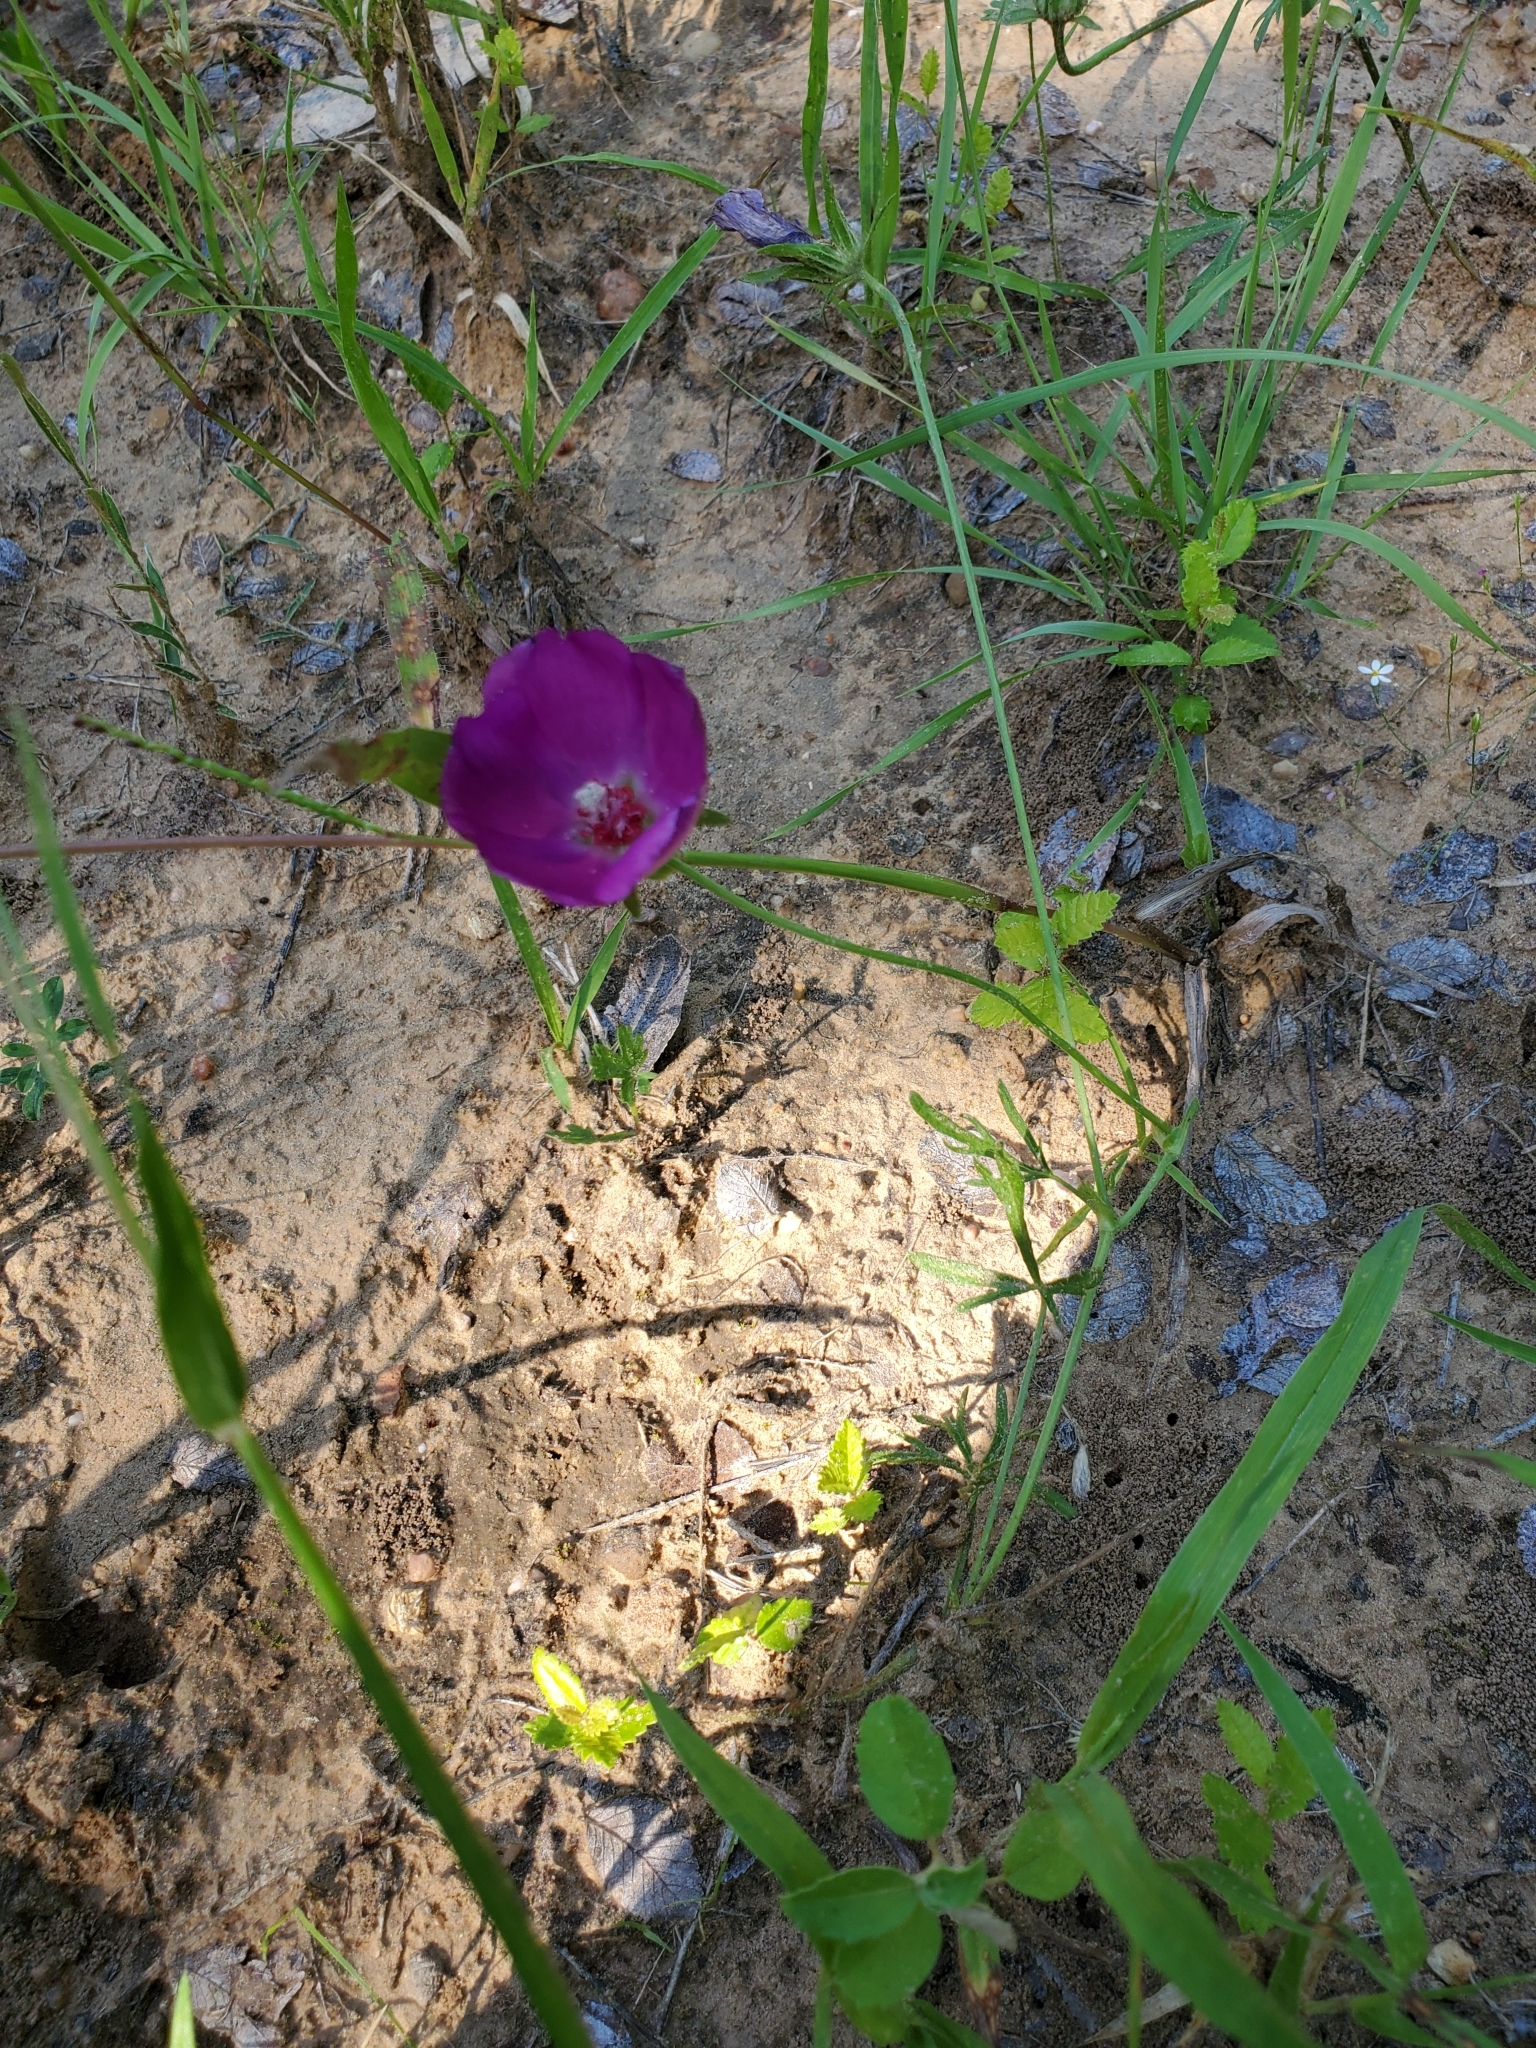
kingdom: Plantae
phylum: Tracheophyta
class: Magnoliopsida
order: Malvales
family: Malvaceae
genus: Callirhoe
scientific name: Callirhoe involucrata
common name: Purple poppy-mallow
